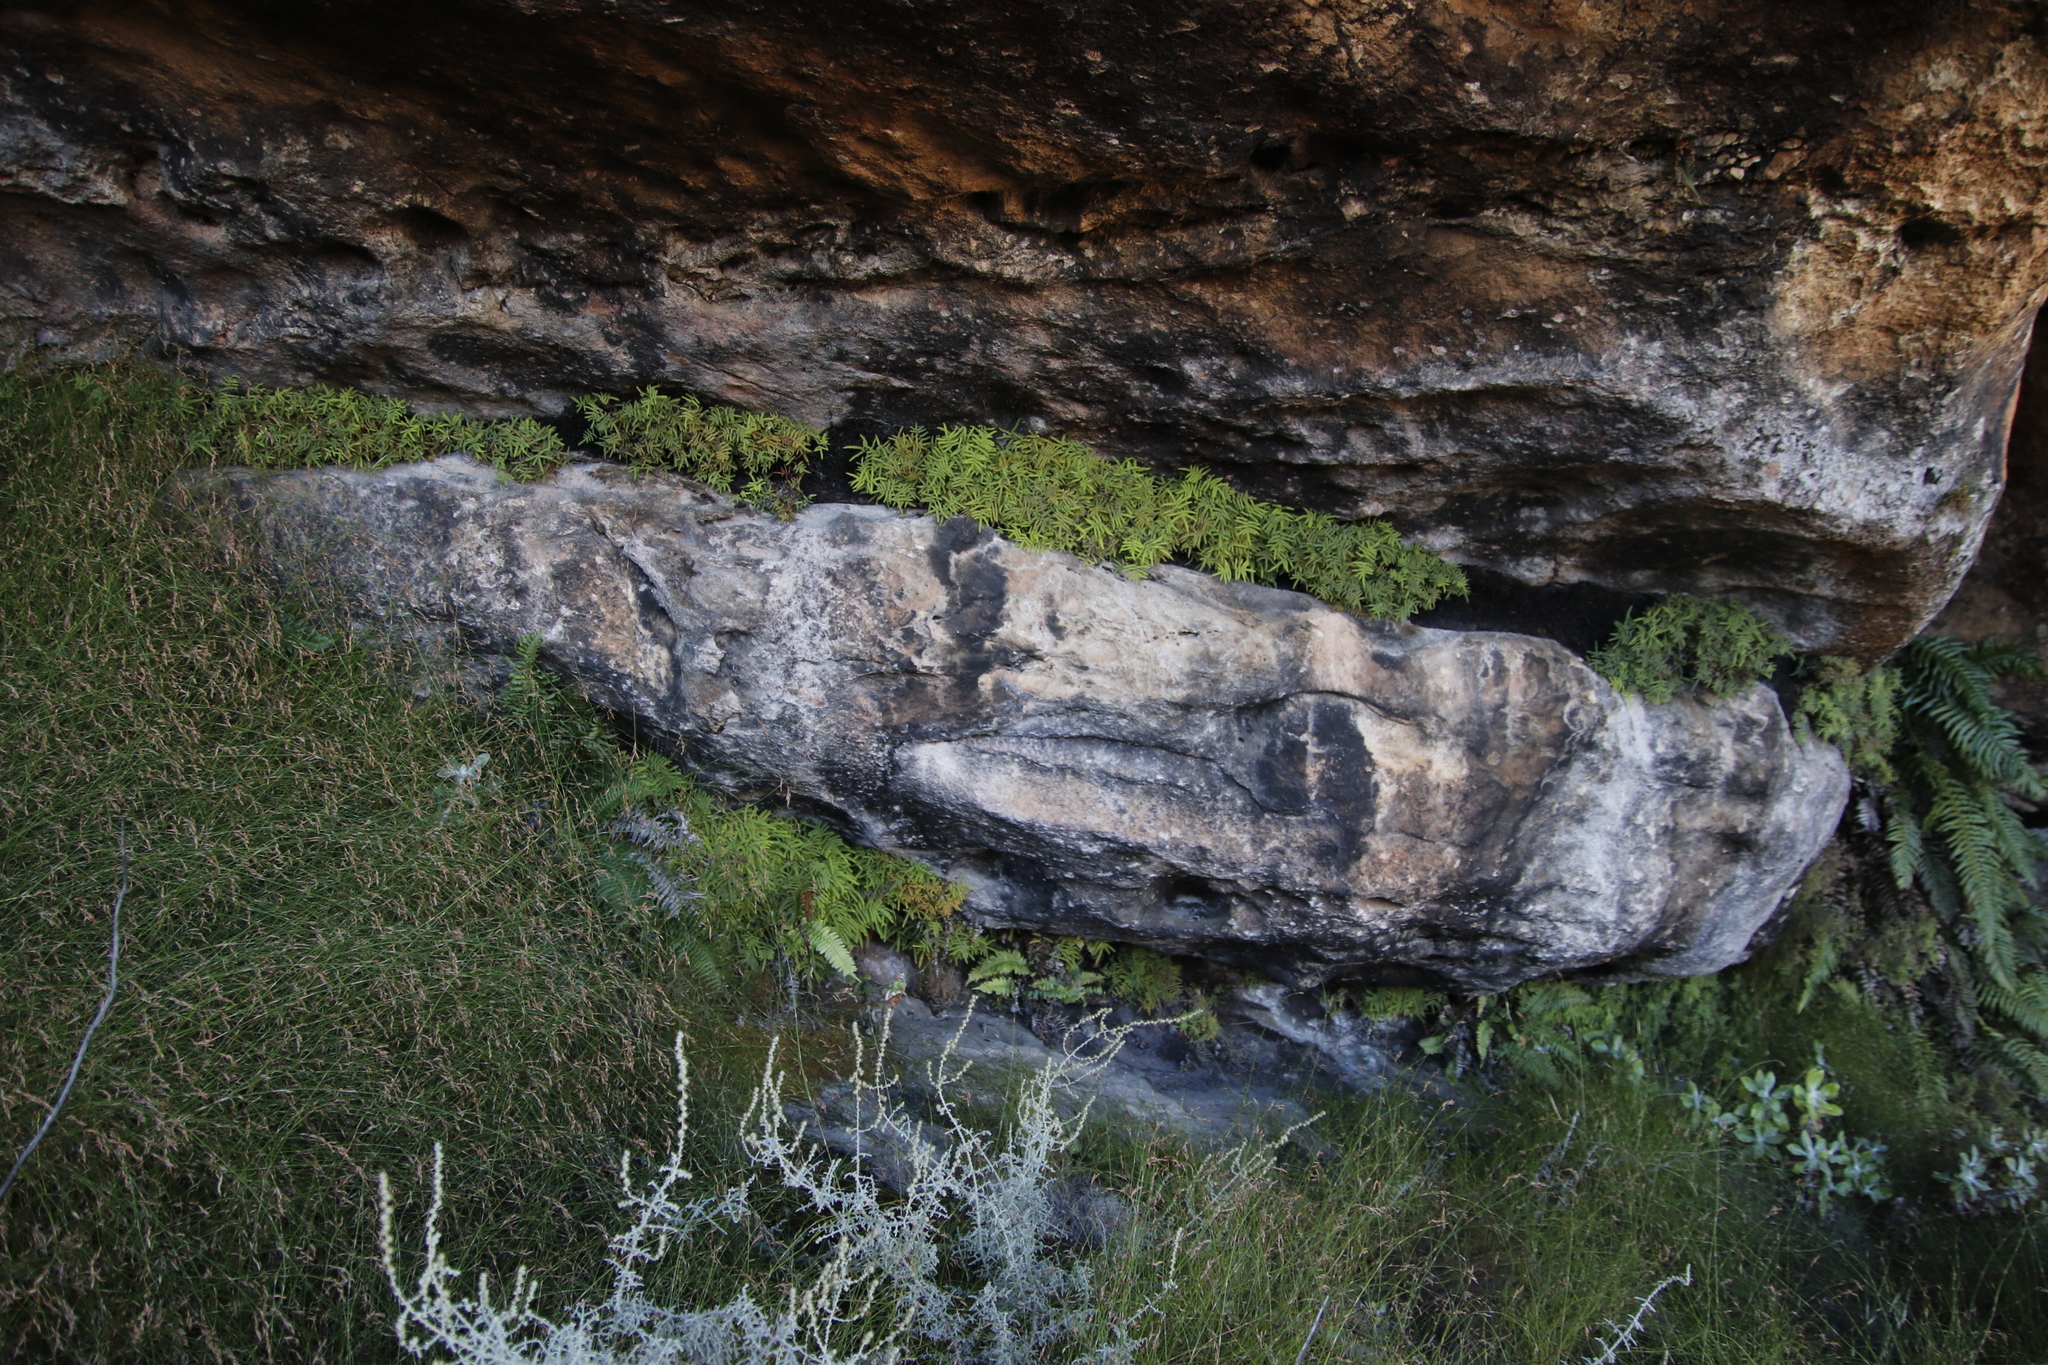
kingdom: Plantae
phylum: Tracheophyta
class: Polypodiopsida
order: Gleicheniales
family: Gleicheniaceae
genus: Gleichenia
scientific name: Gleichenia polypodioides
